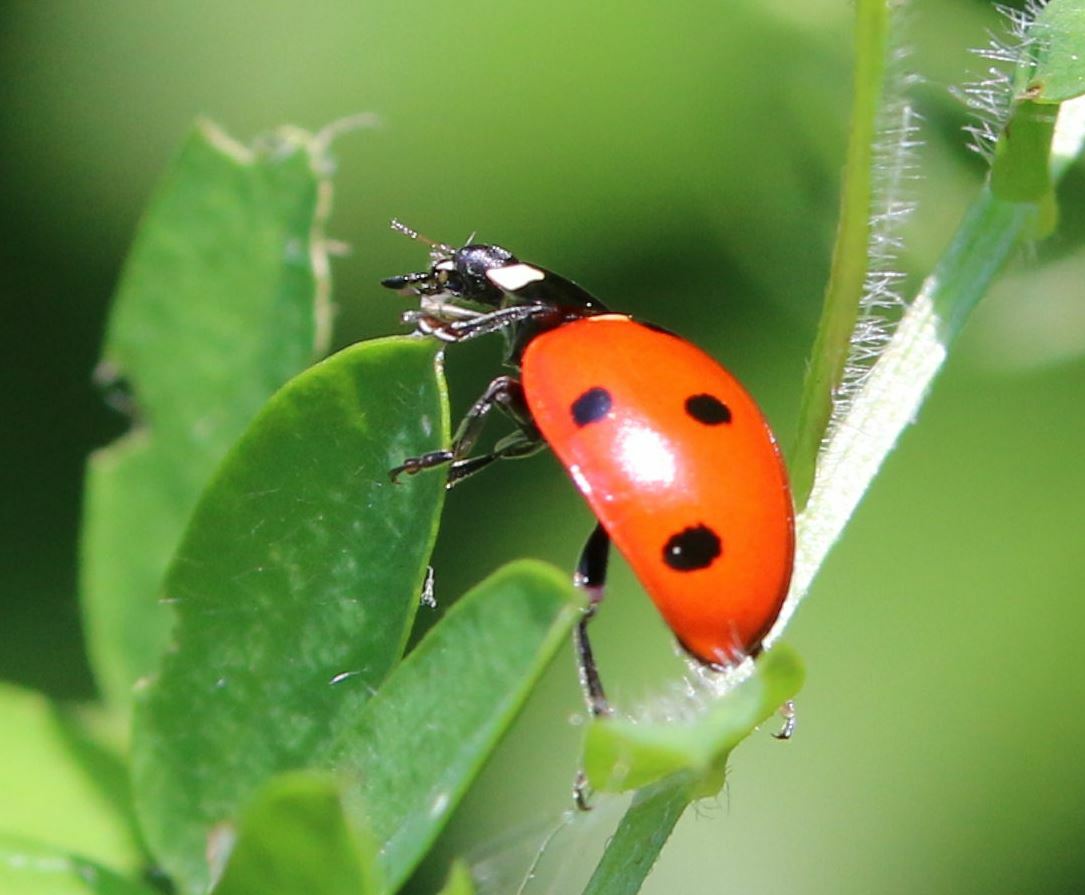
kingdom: Animalia
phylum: Arthropoda
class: Insecta
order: Coleoptera
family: Coccinellidae
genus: Coccinella
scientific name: Coccinella septempunctata
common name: Sevenspotted lady beetle
